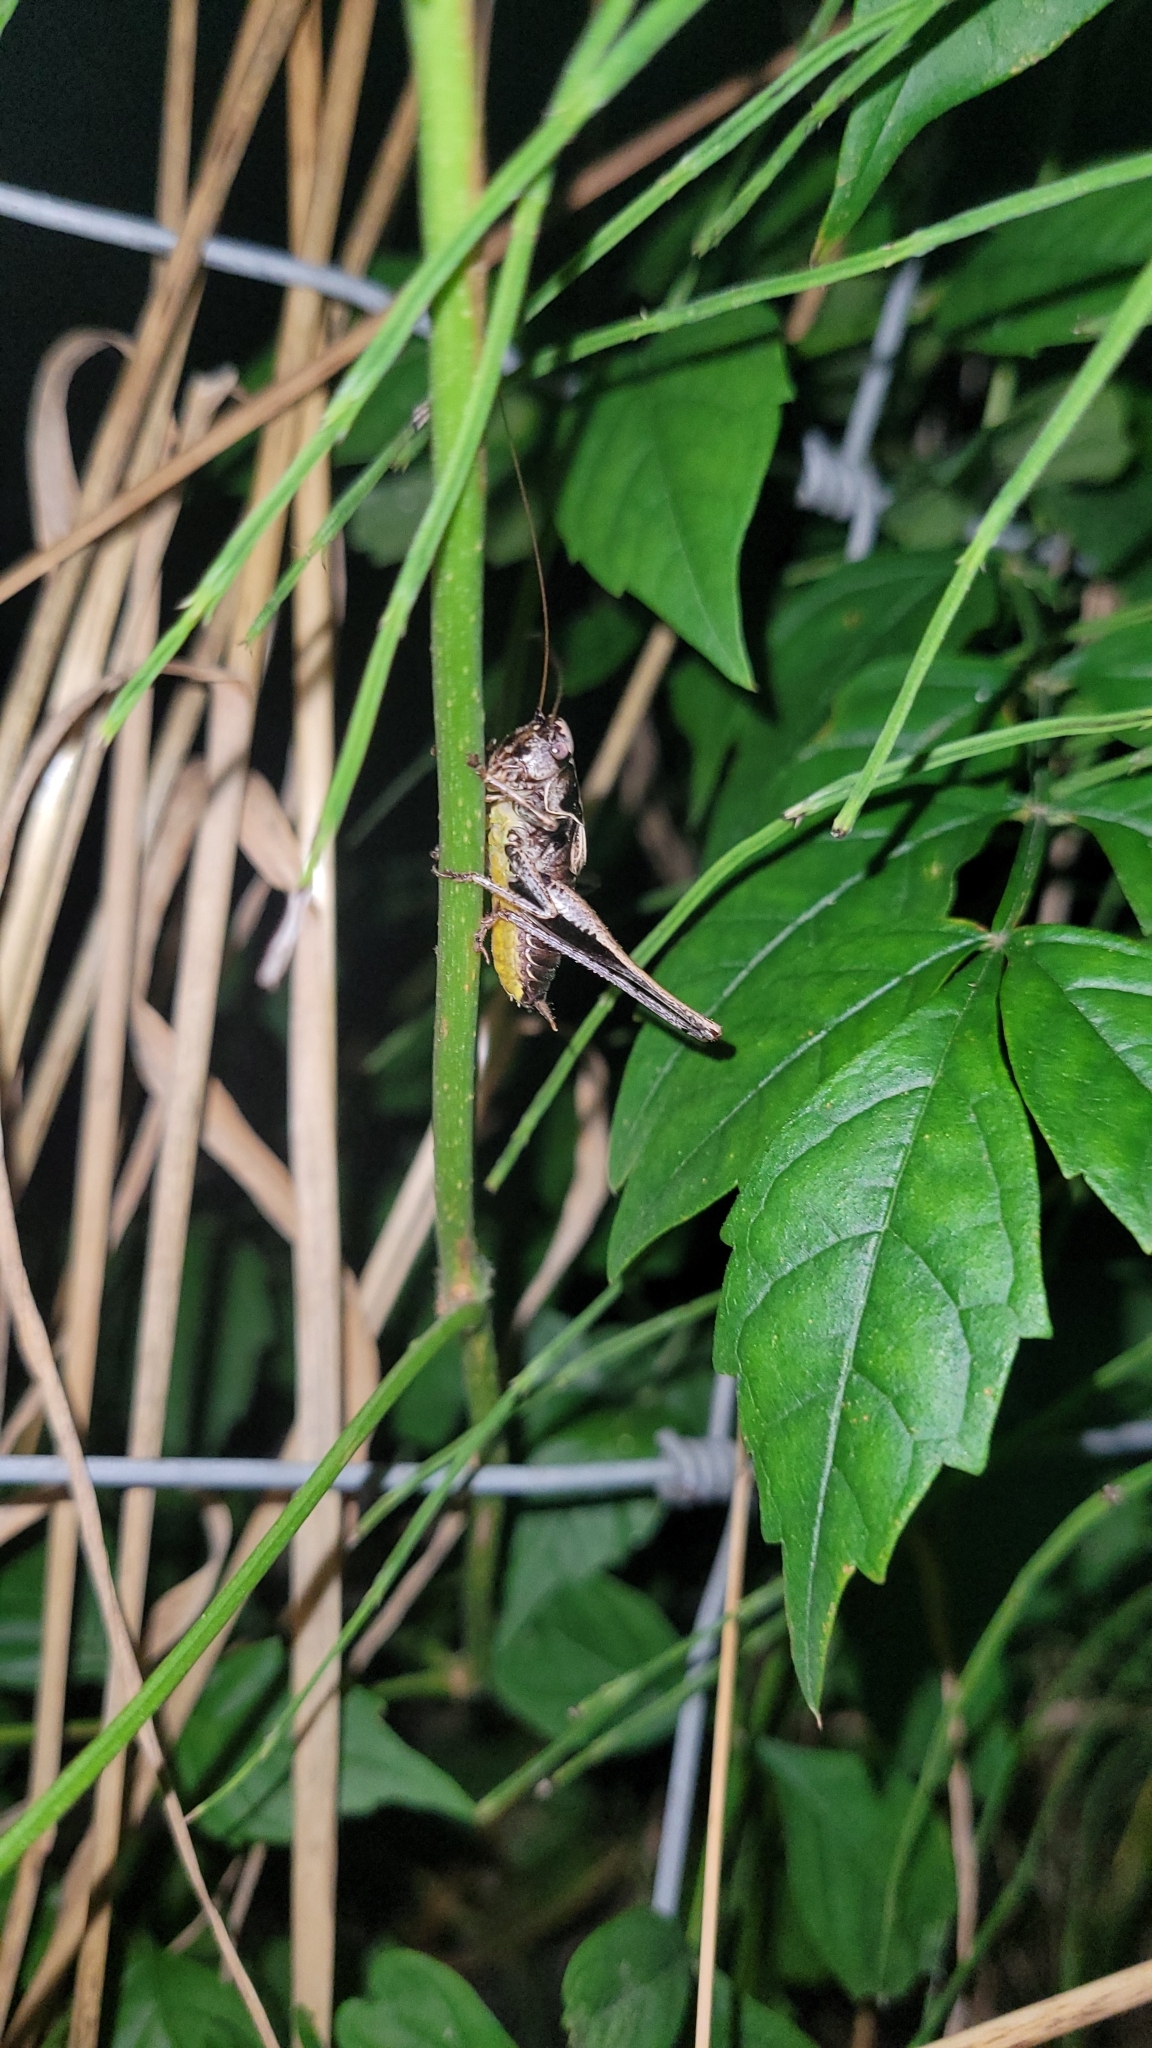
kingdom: Animalia
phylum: Arthropoda
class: Insecta
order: Orthoptera
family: Tettigoniidae
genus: Pholidoptera
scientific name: Pholidoptera griseoaptera
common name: Dark bush-cricket
